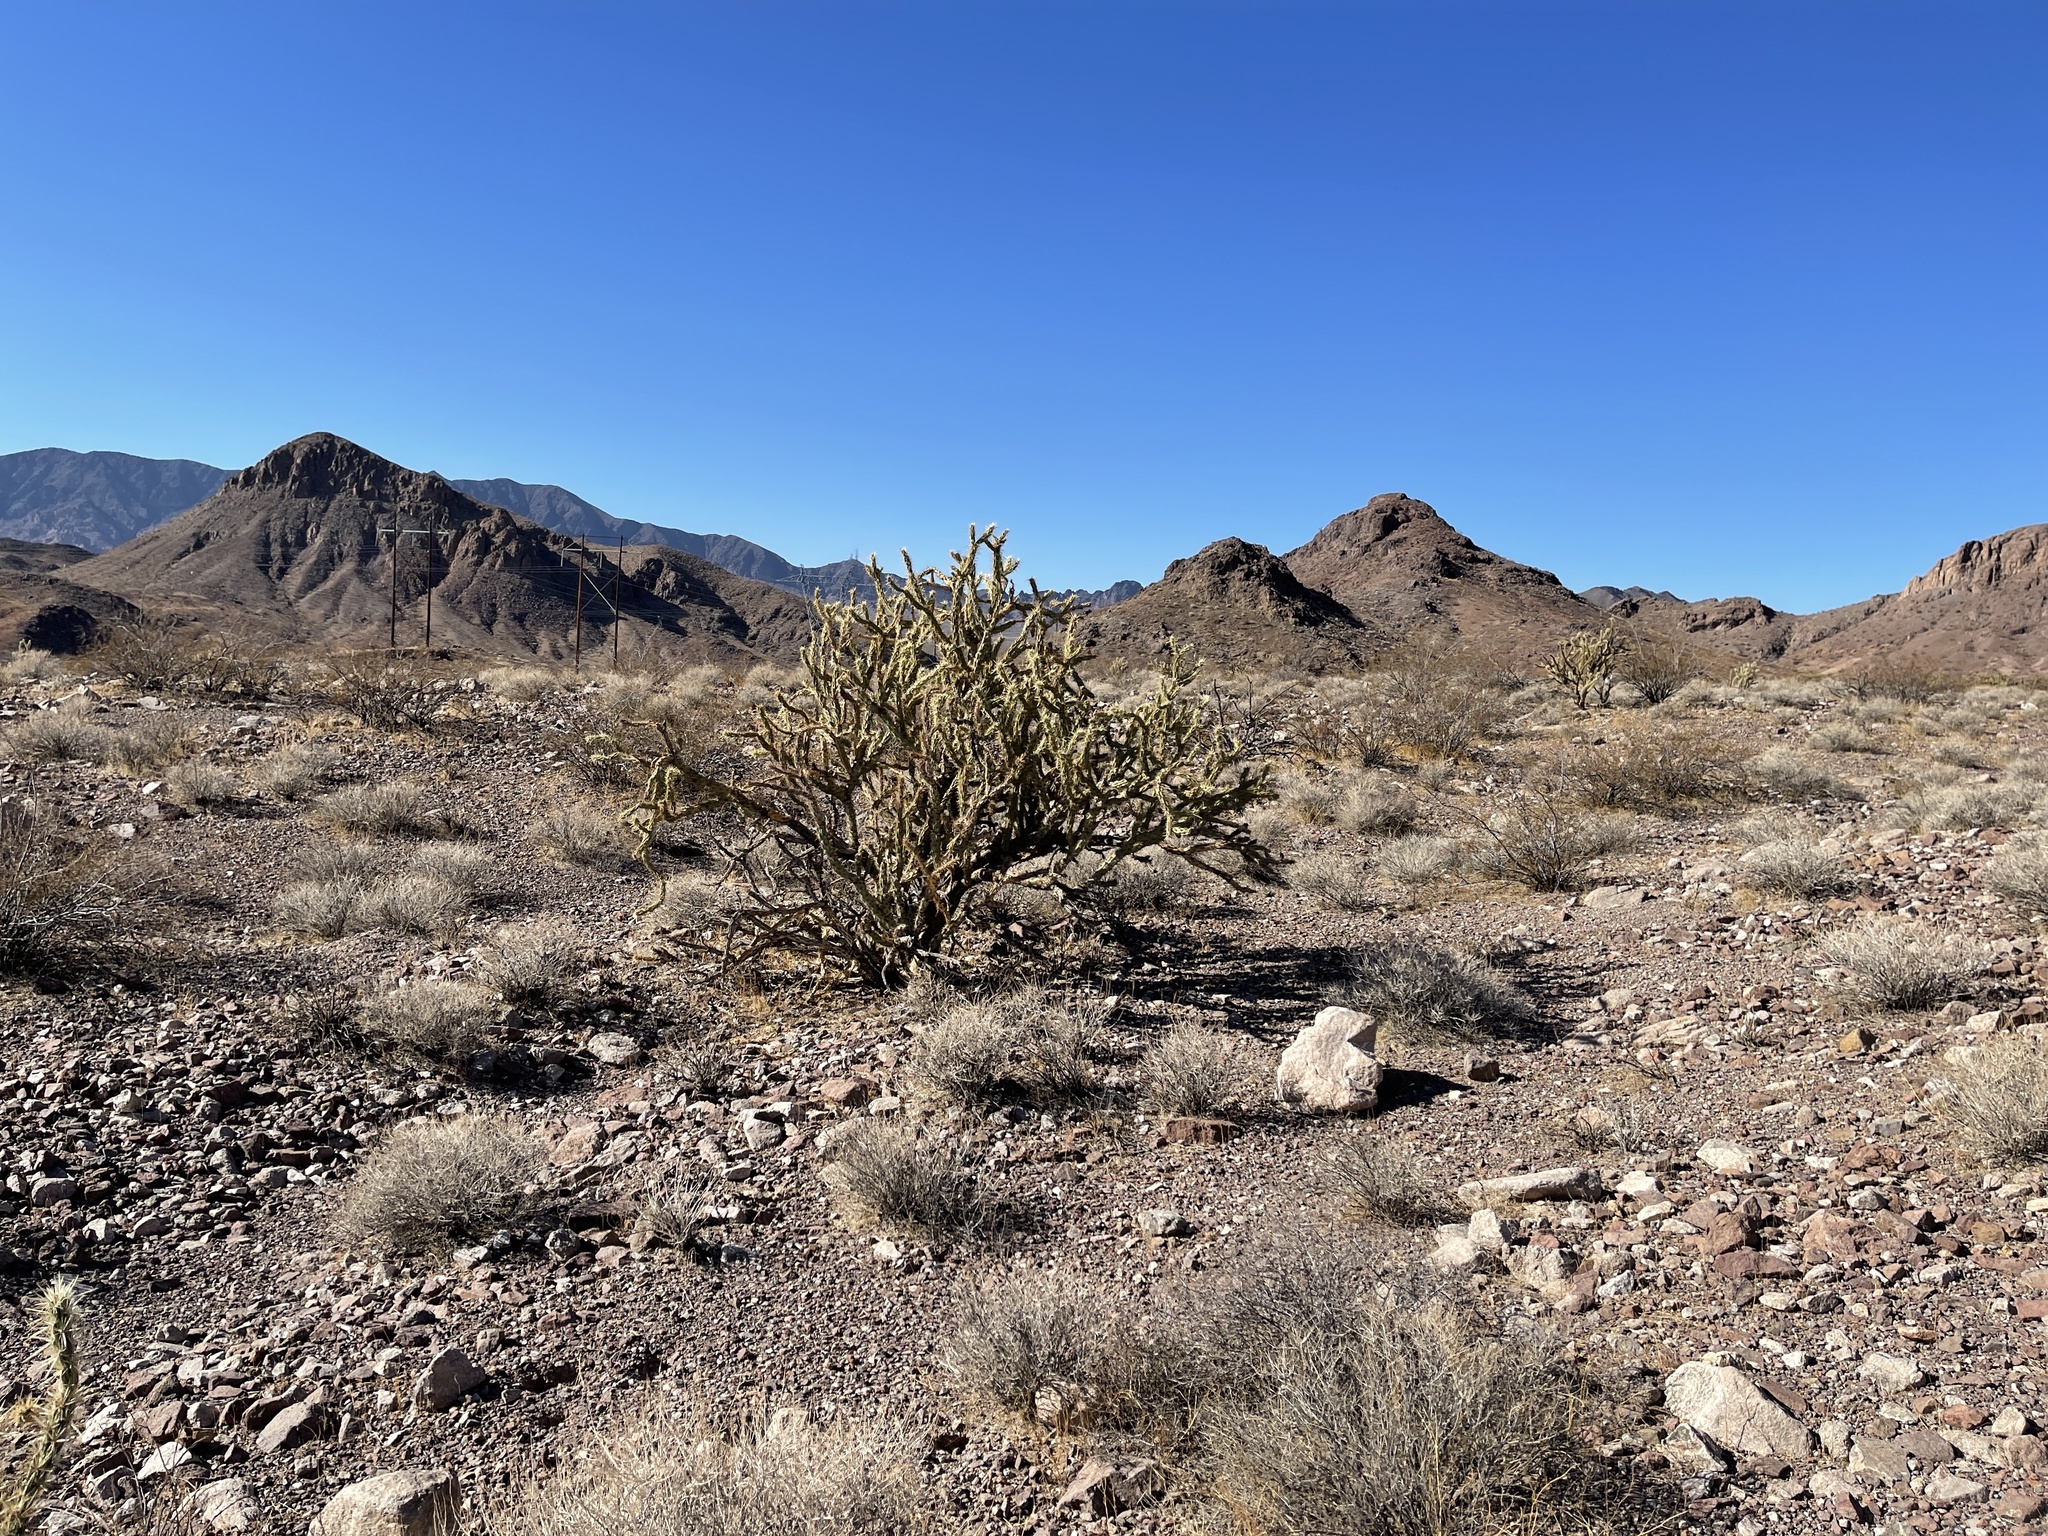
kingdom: Plantae
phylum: Tracheophyta
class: Magnoliopsida
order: Caryophyllales
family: Cactaceae
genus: Cylindropuntia
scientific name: Cylindropuntia acanthocarpa
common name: Buckhorn cholla
